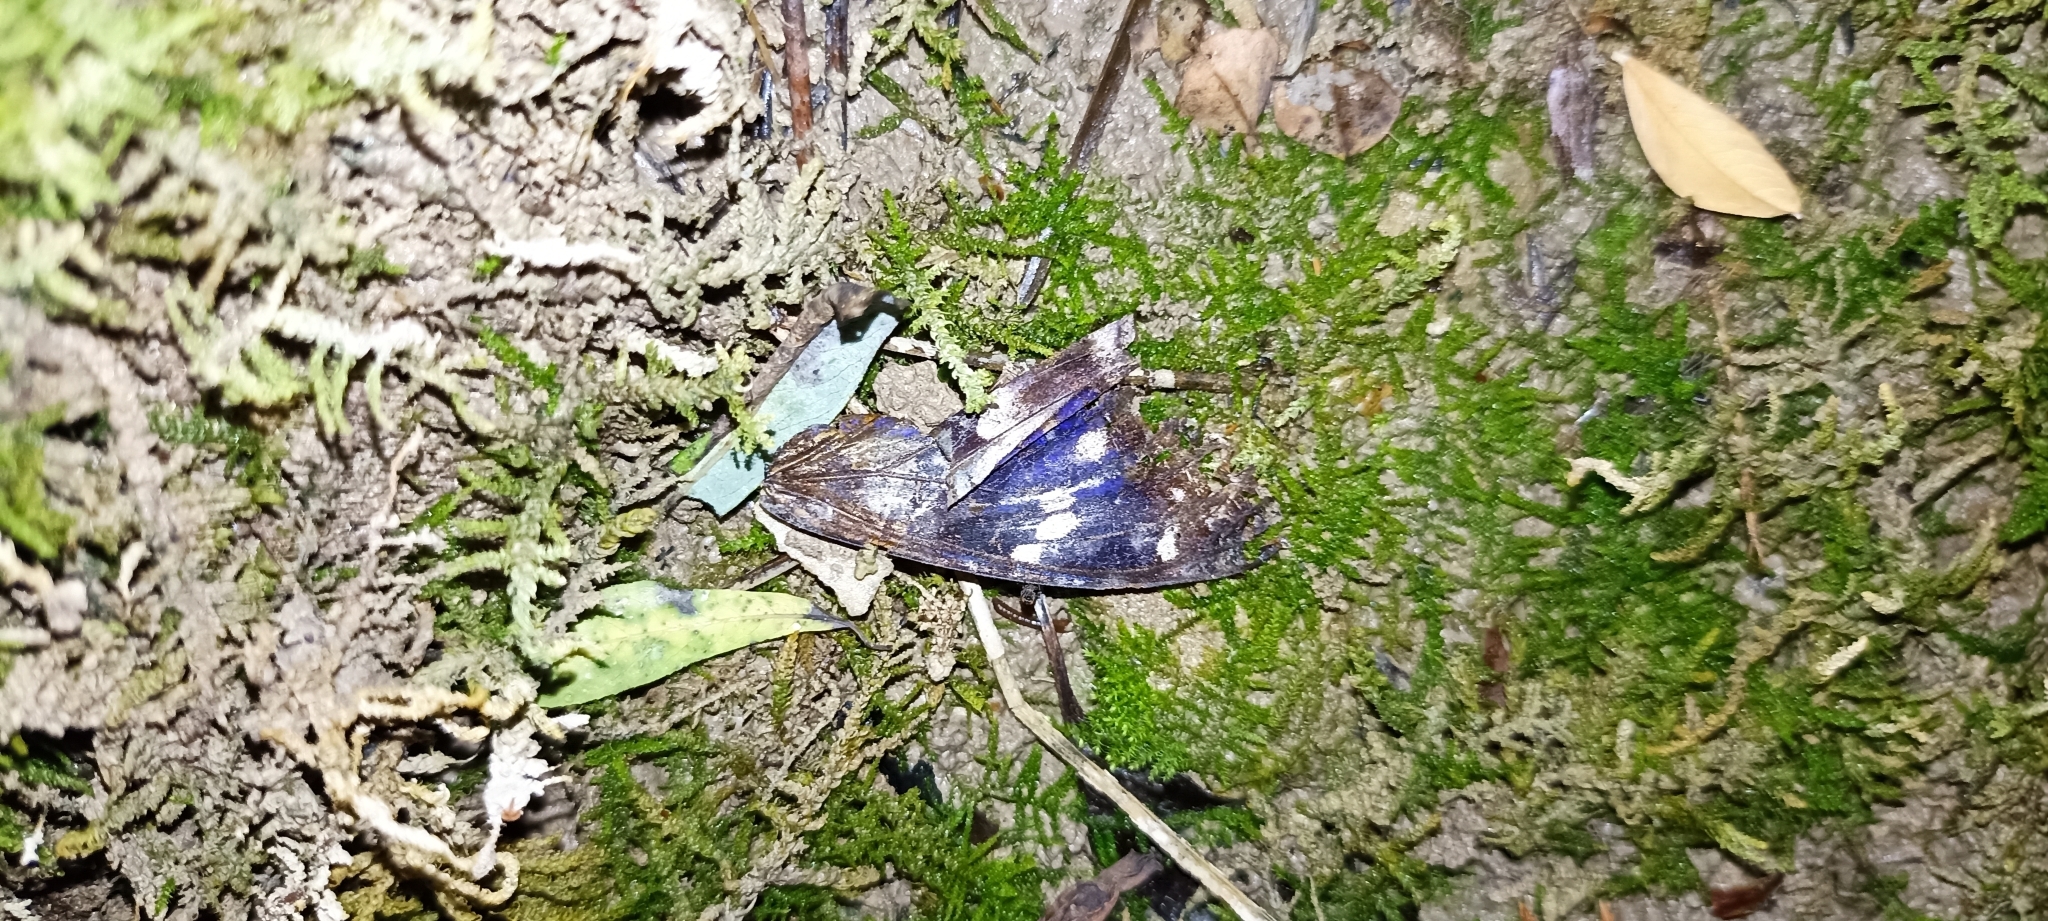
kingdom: Animalia
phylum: Arthropoda
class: Insecta
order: Lepidoptera
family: Nymphalidae
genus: Apatura
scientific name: Apatura iris
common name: Purple emperor
